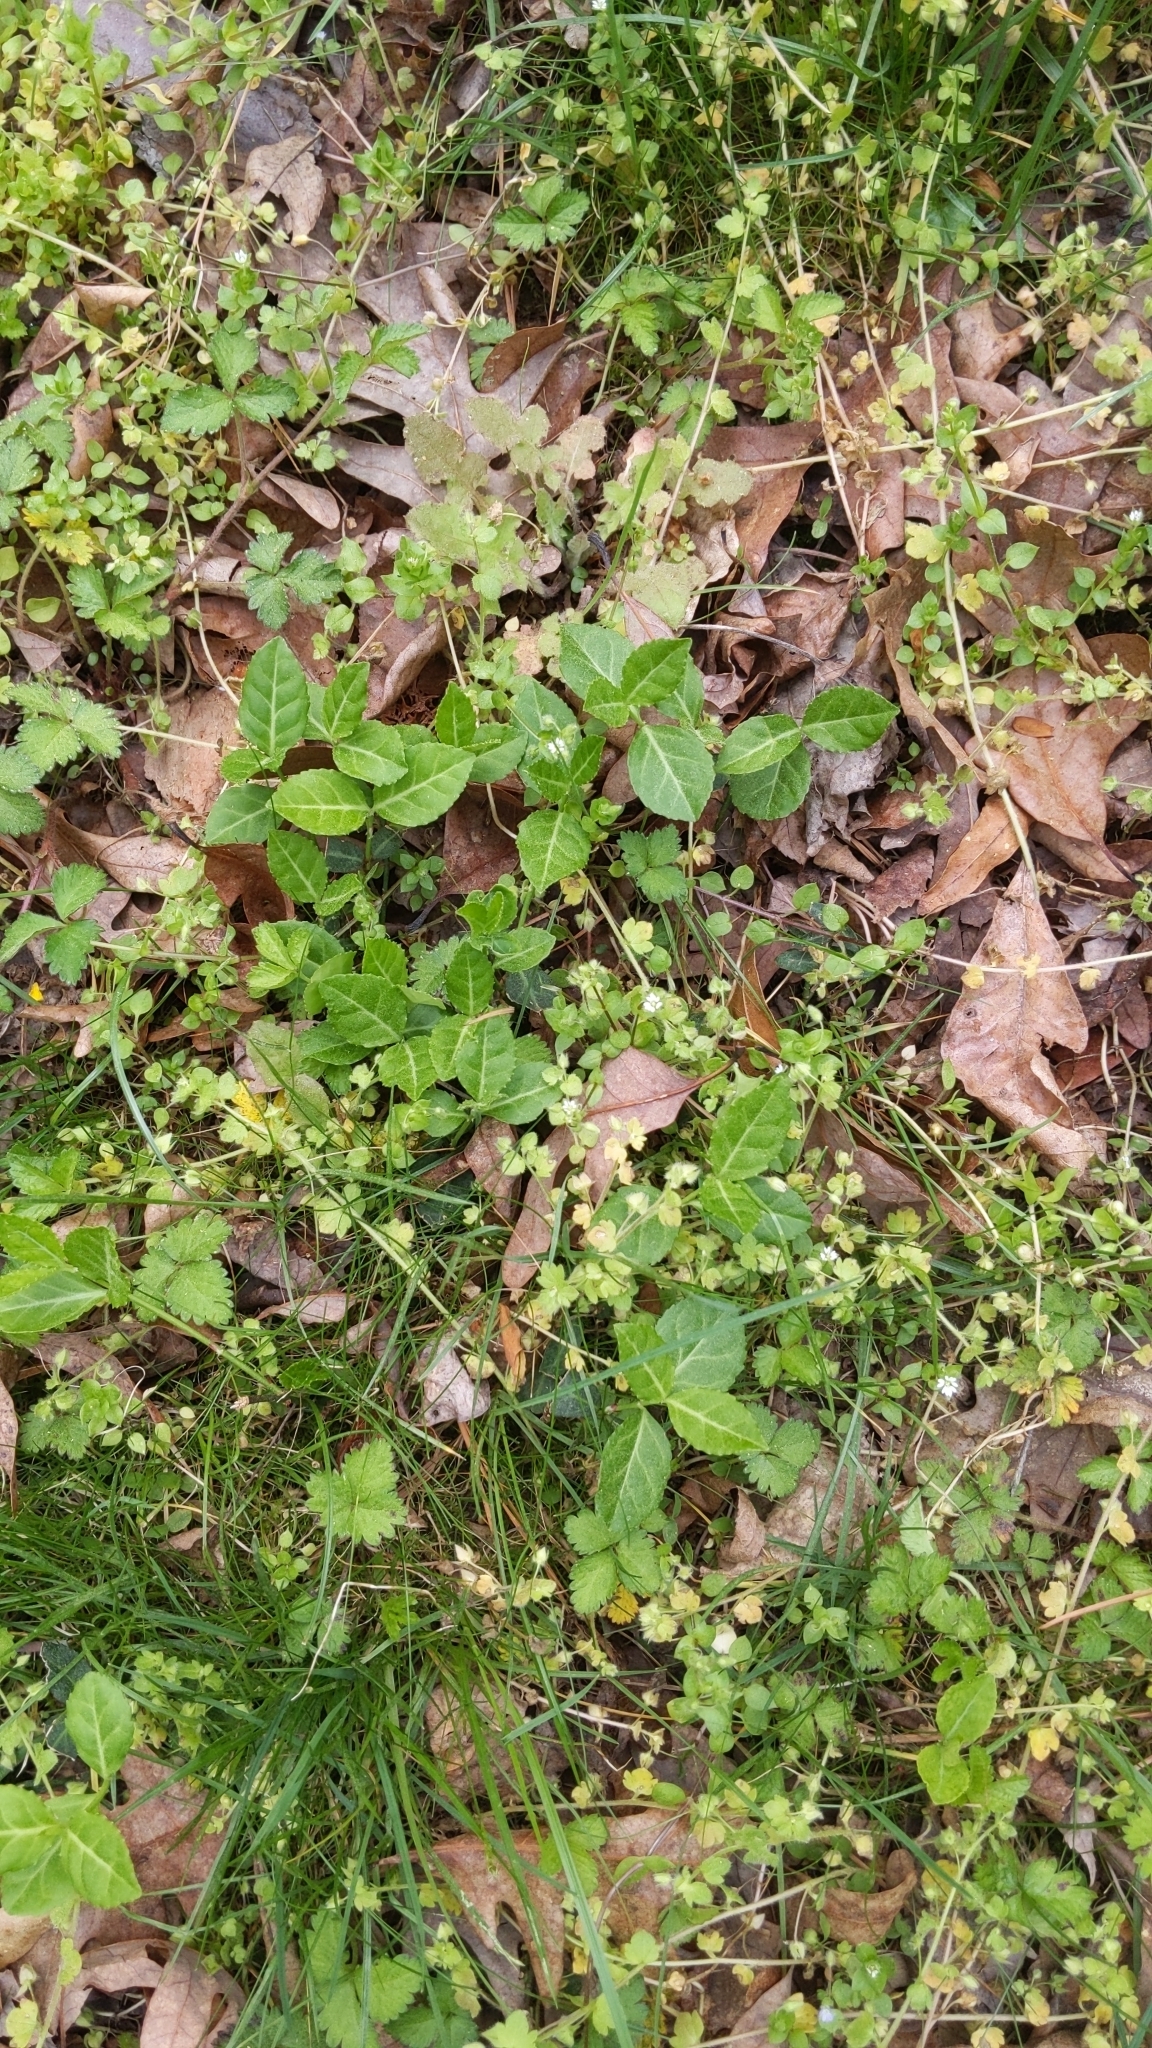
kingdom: Plantae
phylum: Tracheophyta
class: Magnoliopsida
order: Celastrales
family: Celastraceae
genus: Euonymus
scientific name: Euonymus fortunei
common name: Climbing euonymus
